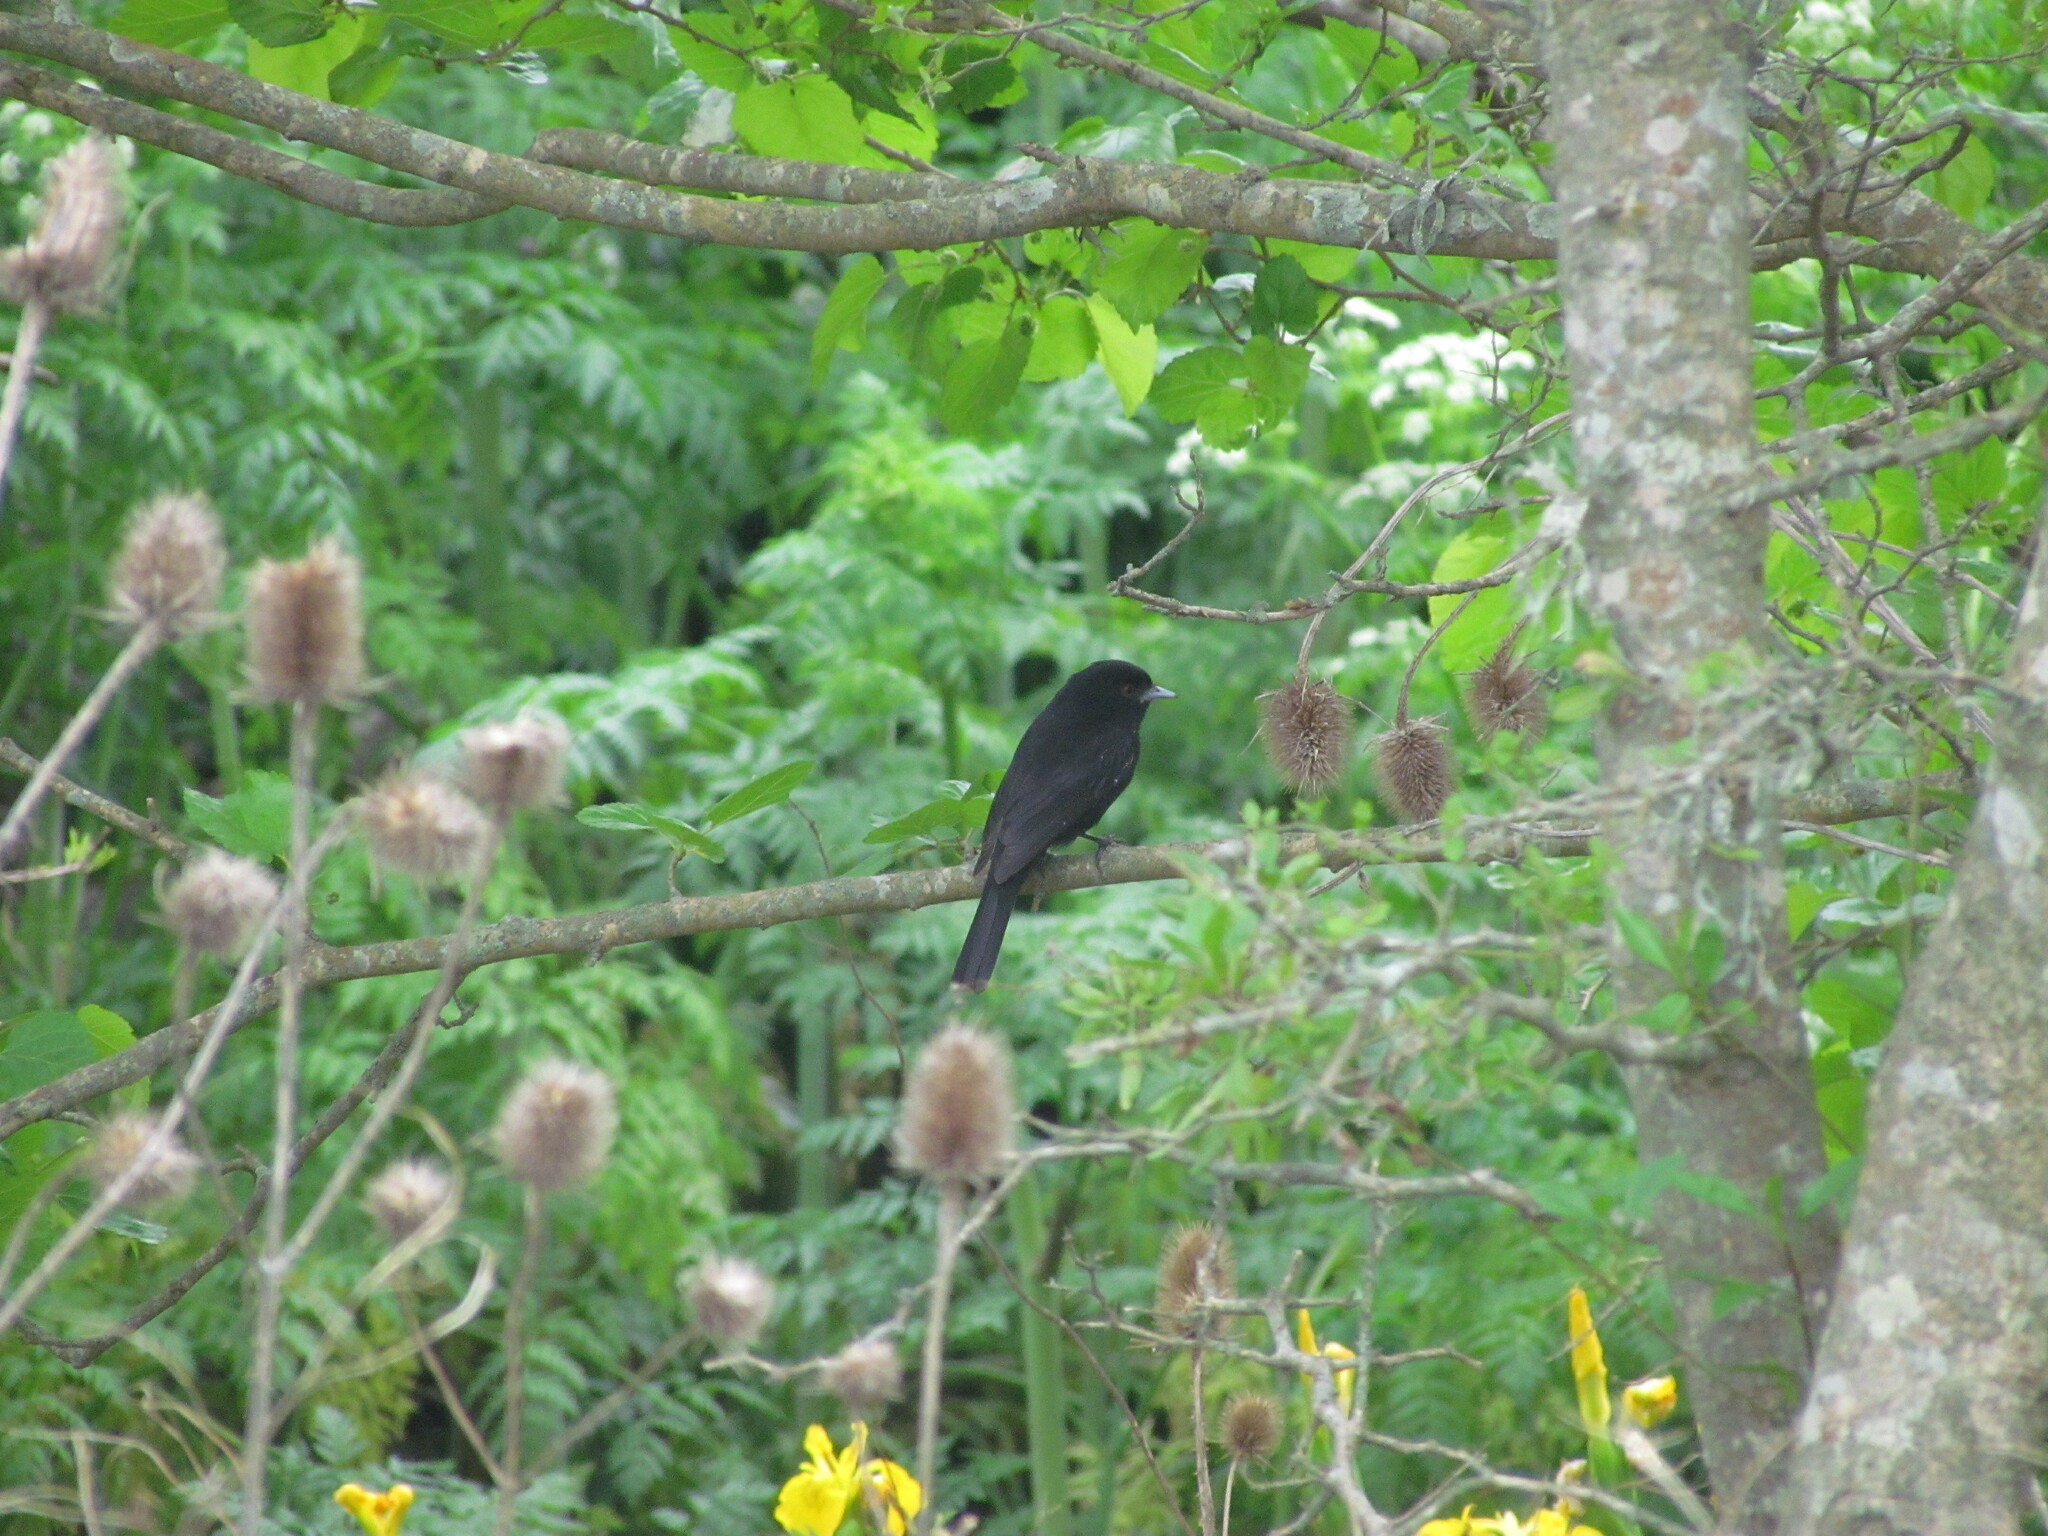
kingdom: Animalia
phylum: Chordata
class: Aves
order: Passeriformes
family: Tyrannidae
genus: Knipolegus
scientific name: Knipolegus cyanirostris
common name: Blue-billed black tyrant
